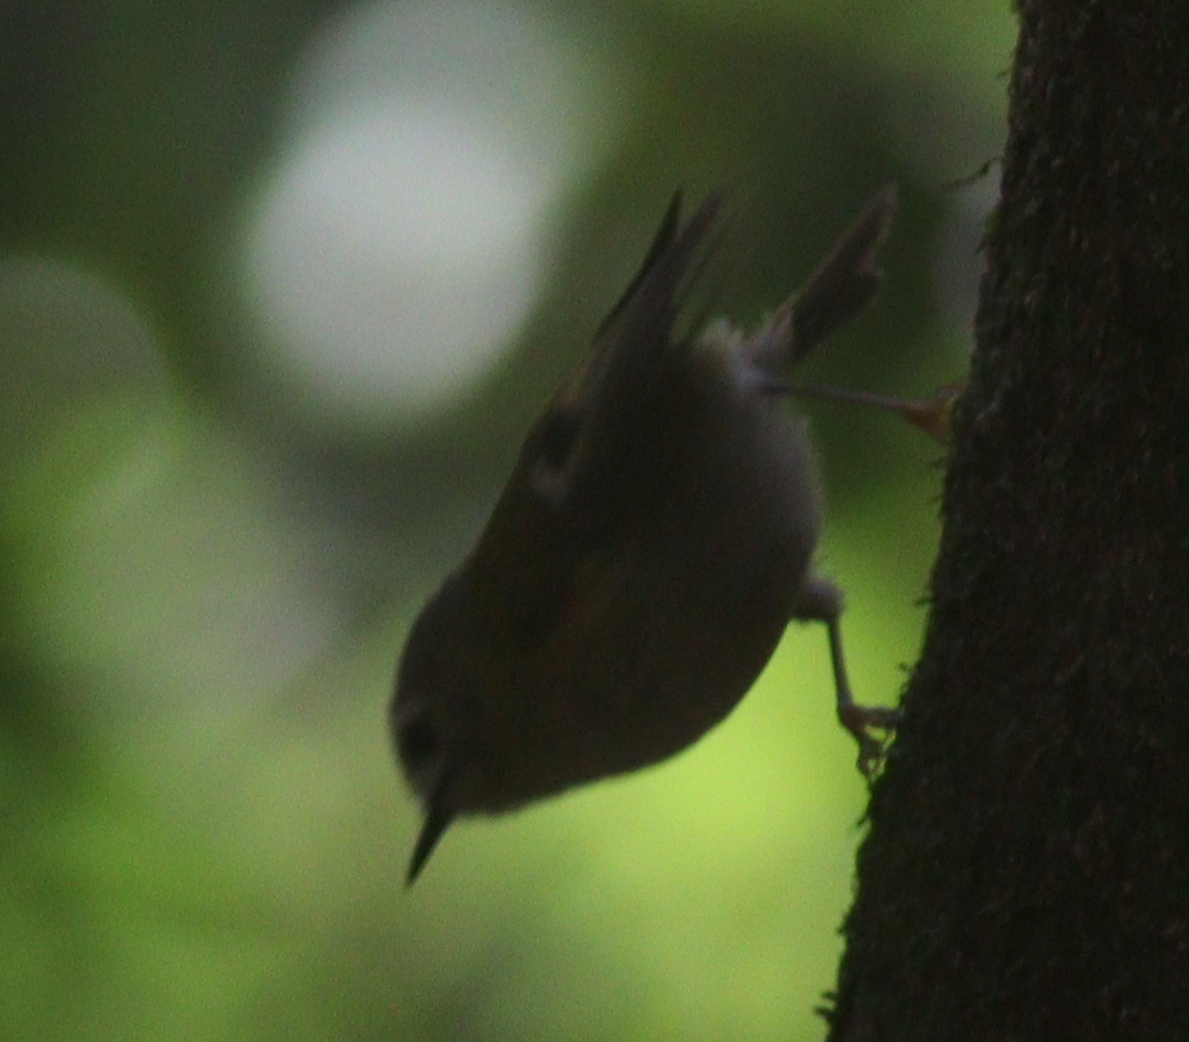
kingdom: Animalia
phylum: Chordata
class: Aves
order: Passeriformes
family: Regulidae
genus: Regulus
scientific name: Regulus regulus
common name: Goldcrest
